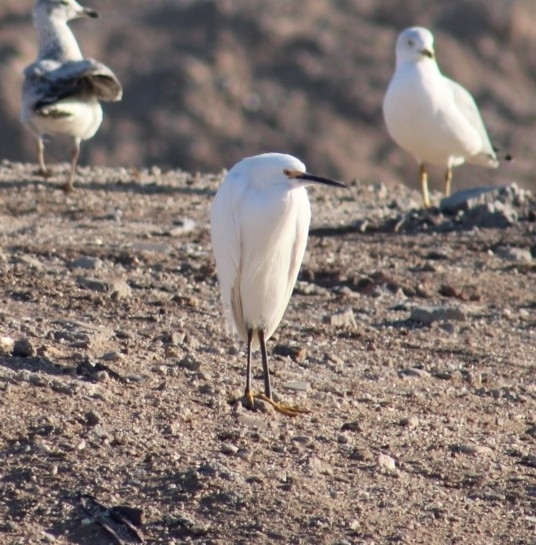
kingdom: Animalia
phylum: Chordata
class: Aves
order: Pelecaniformes
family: Ardeidae
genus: Egretta
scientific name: Egretta thula
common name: Snowy egret
